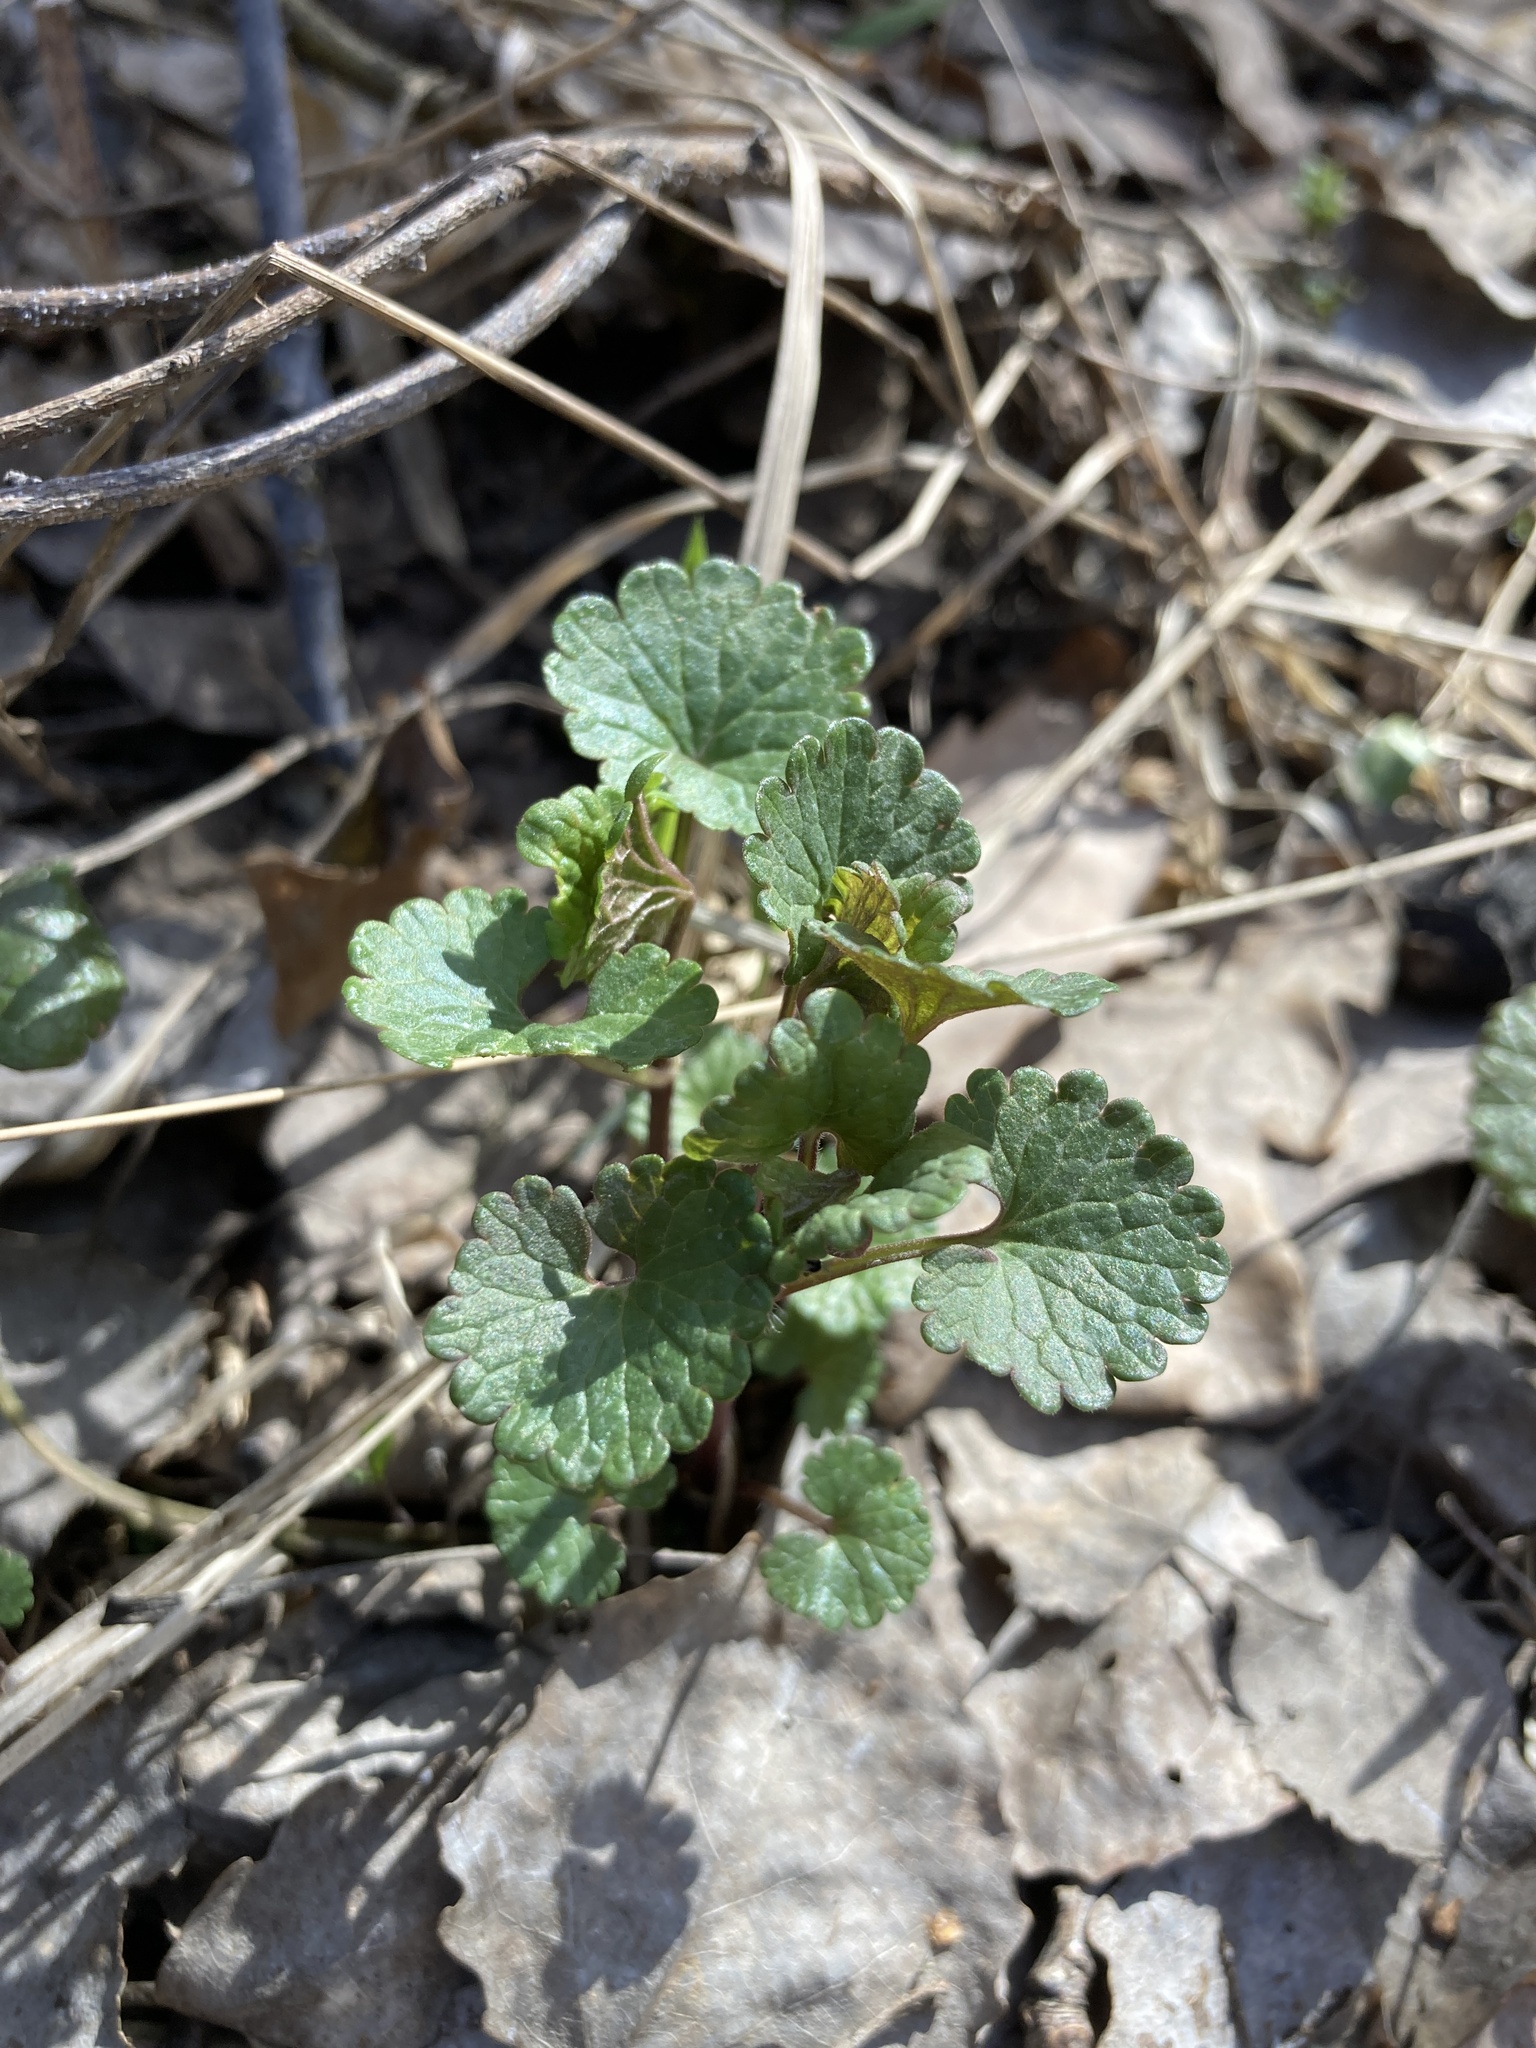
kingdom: Plantae
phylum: Tracheophyta
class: Magnoliopsida
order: Lamiales
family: Lamiaceae
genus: Glechoma
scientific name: Glechoma hederacea
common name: Ground ivy
